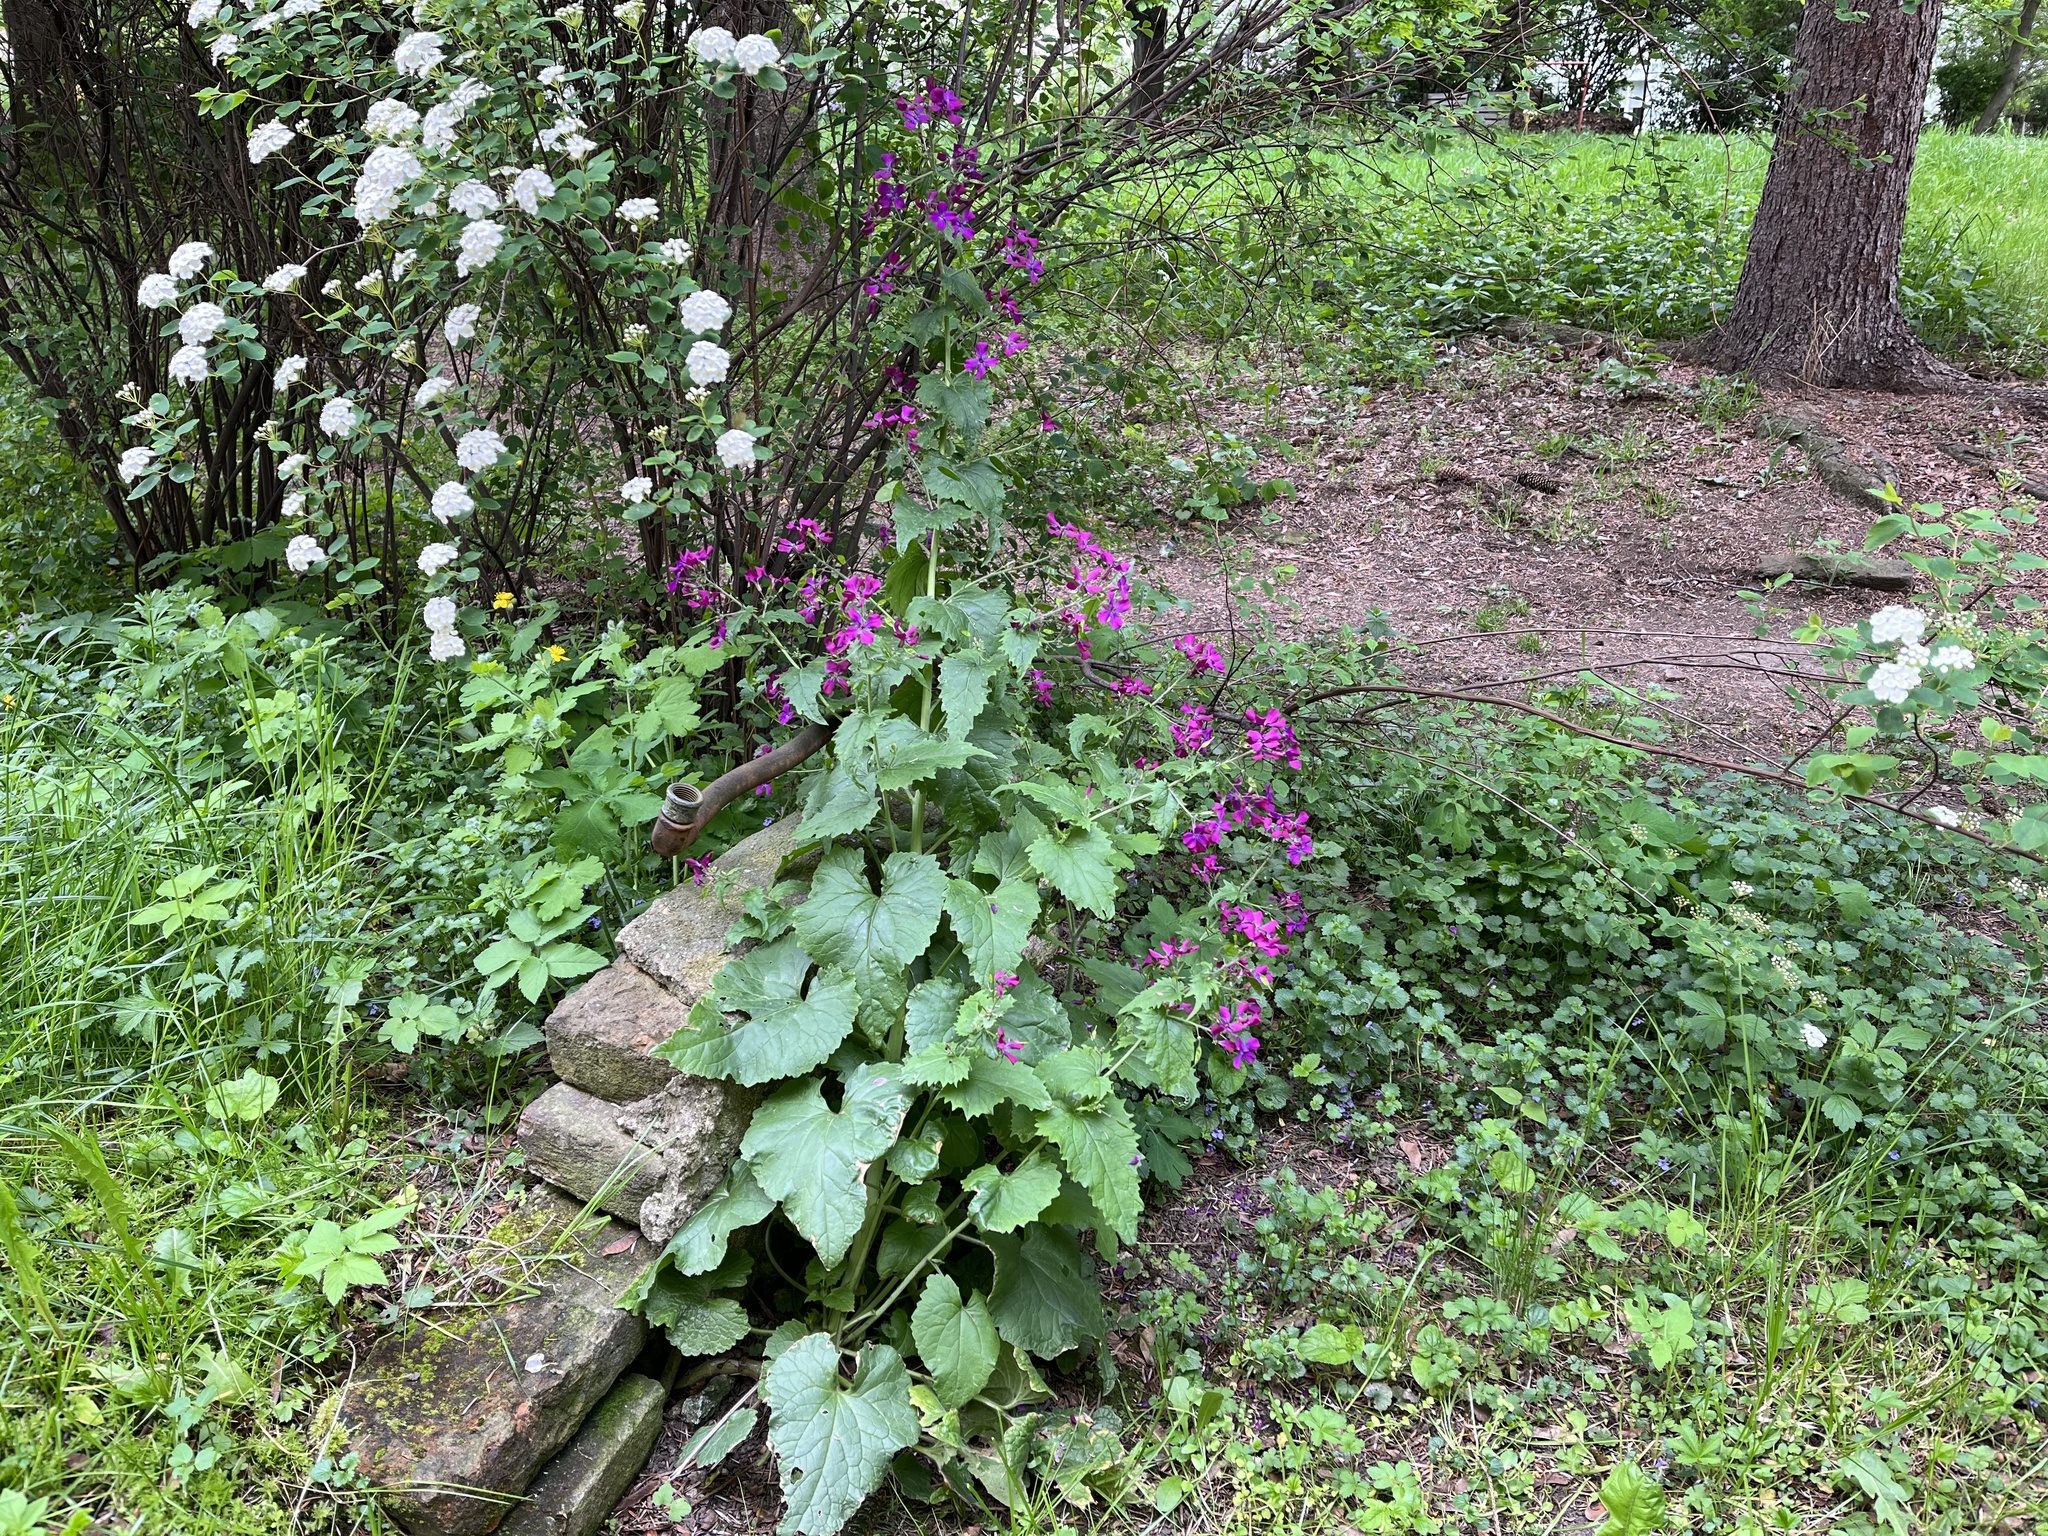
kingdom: Plantae
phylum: Tracheophyta
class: Magnoliopsida
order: Brassicales
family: Brassicaceae
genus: Lunaria
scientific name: Lunaria annua
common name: Honesty
